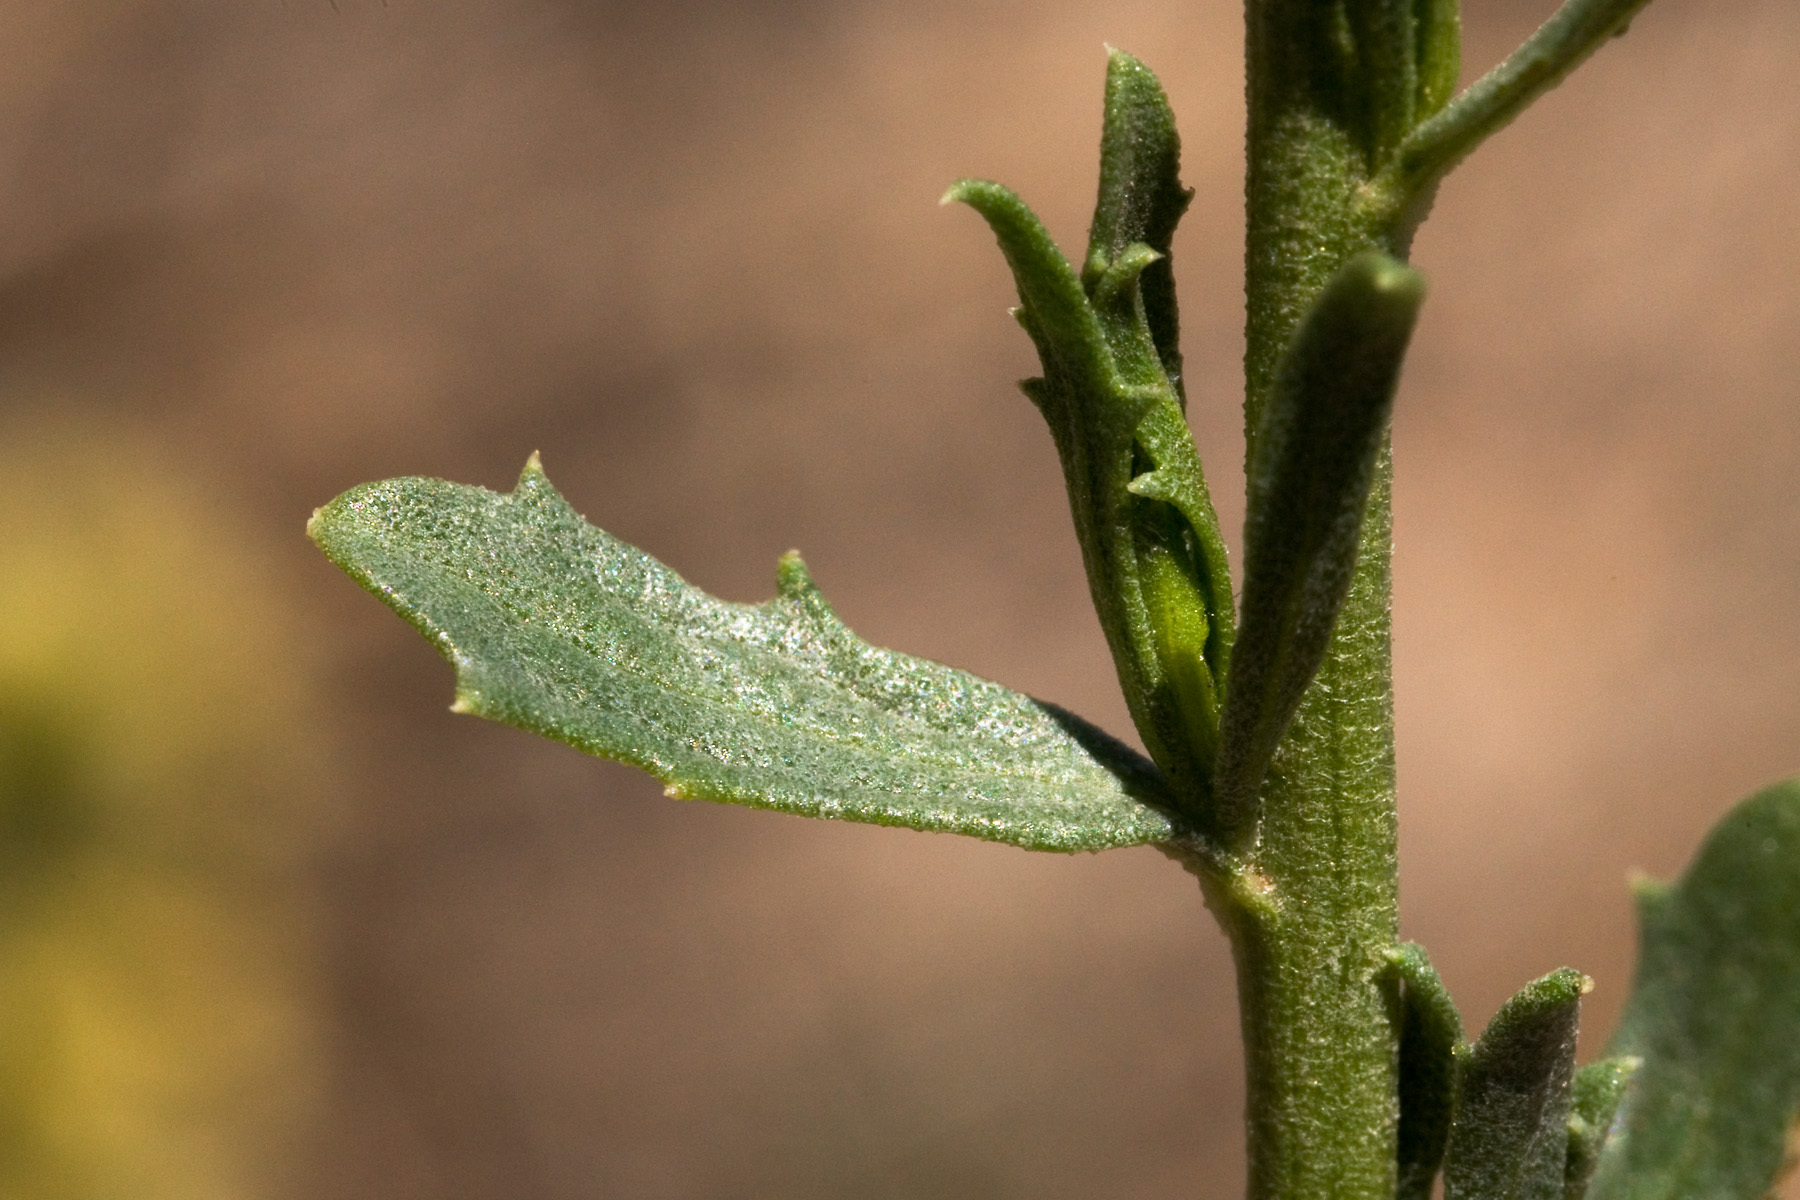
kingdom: Plantae
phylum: Tracheophyta
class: Magnoliopsida
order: Asterales
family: Asteraceae
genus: Baccharis
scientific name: Baccharis pteronioides
